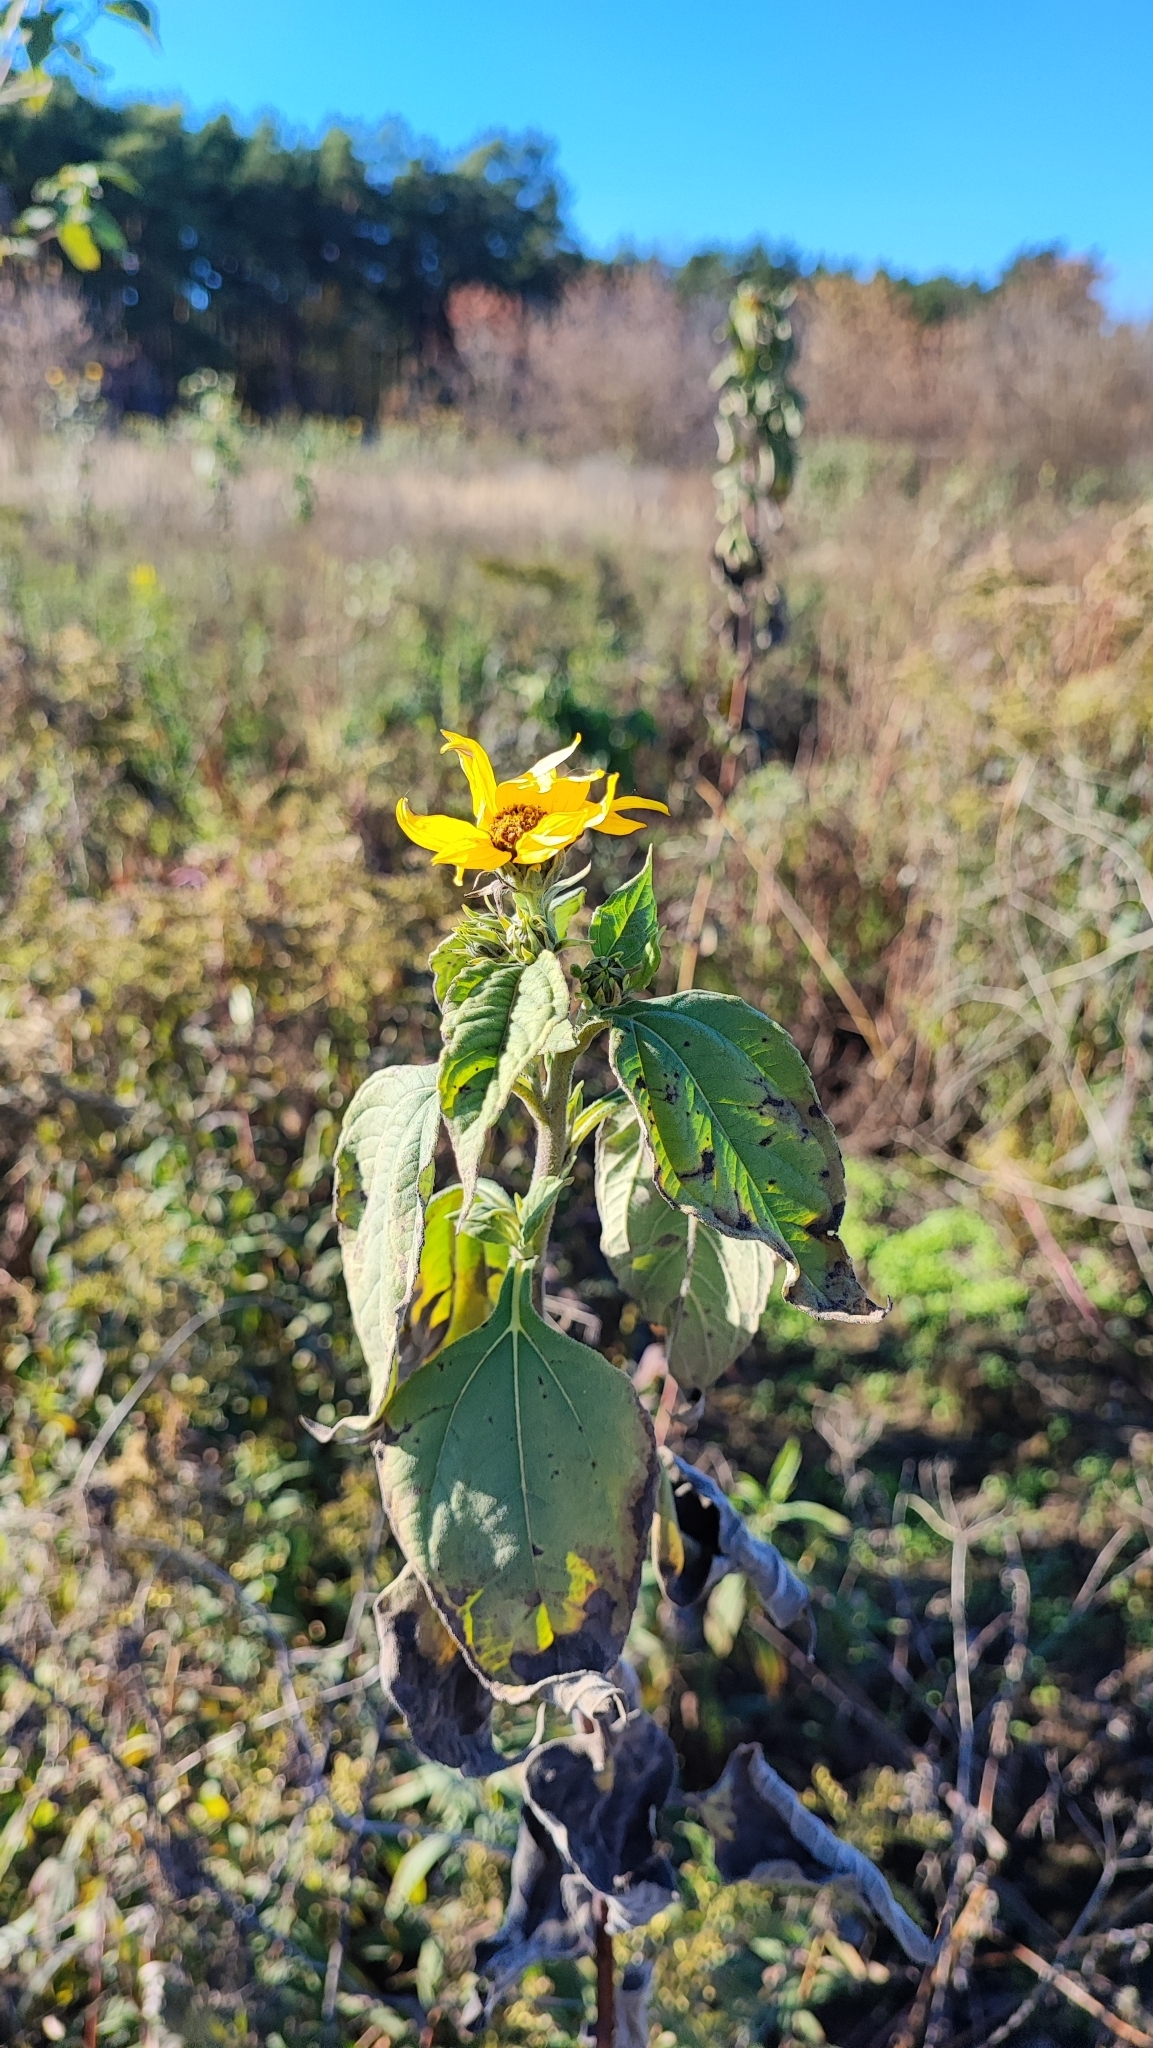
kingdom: Plantae
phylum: Tracheophyta
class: Magnoliopsida
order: Asterales
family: Asteraceae
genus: Helianthus
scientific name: Helianthus annuus
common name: Sunflower
